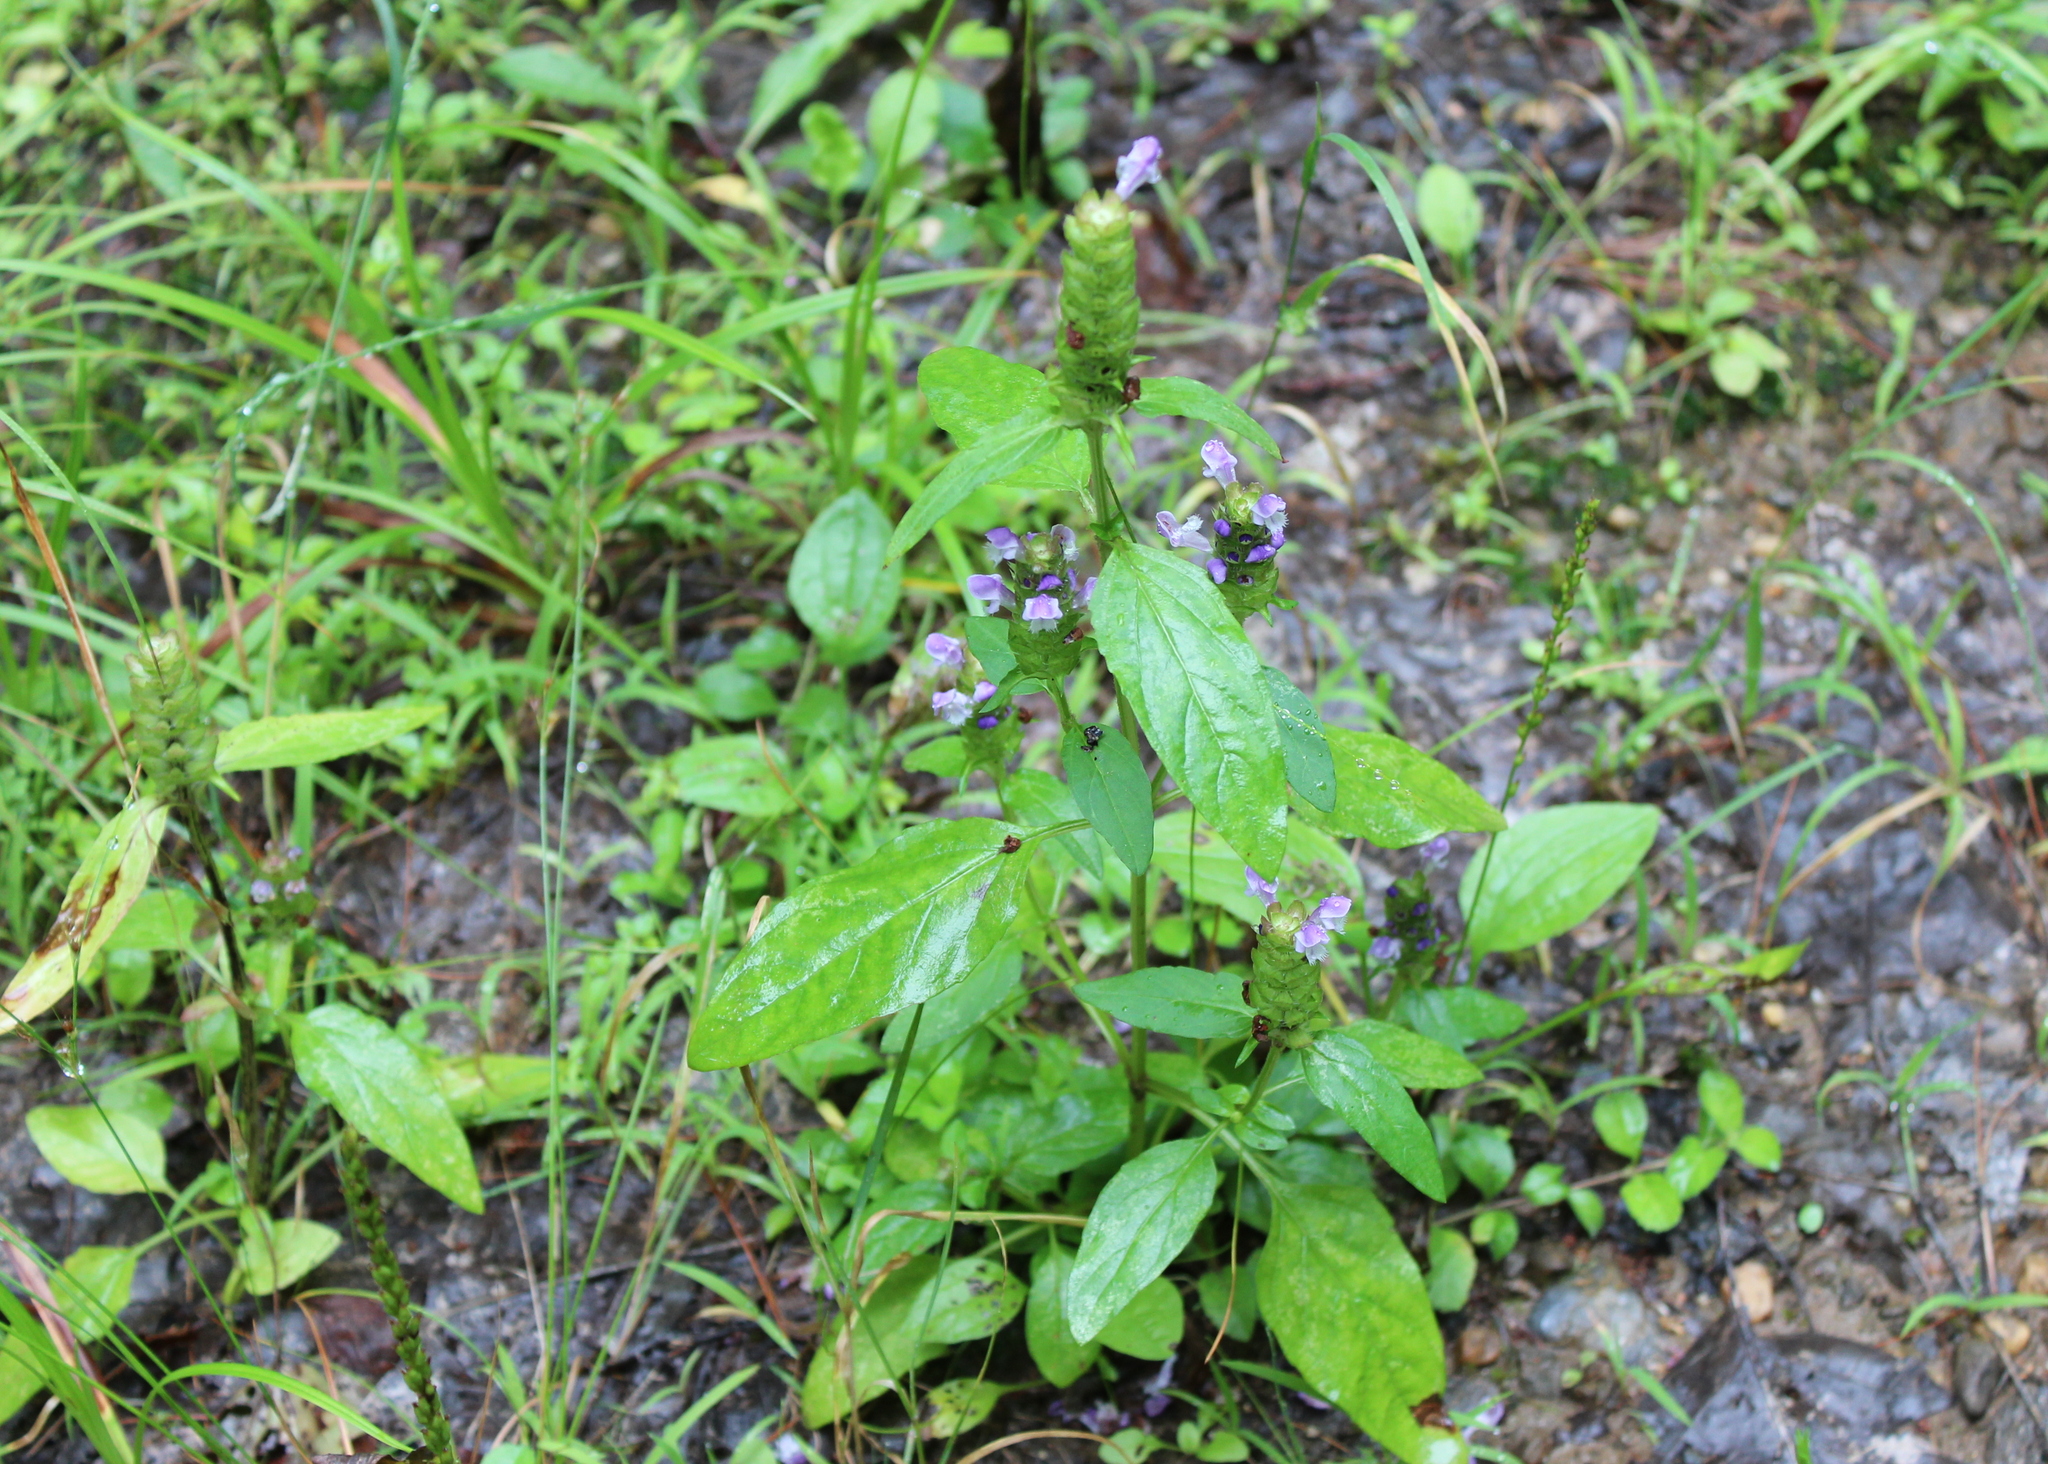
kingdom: Plantae
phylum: Tracheophyta
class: Magnoliopsida
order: Lamiales
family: Lamiaceae
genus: Prunella
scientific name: Prunella vulgaris
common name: Heal-all
